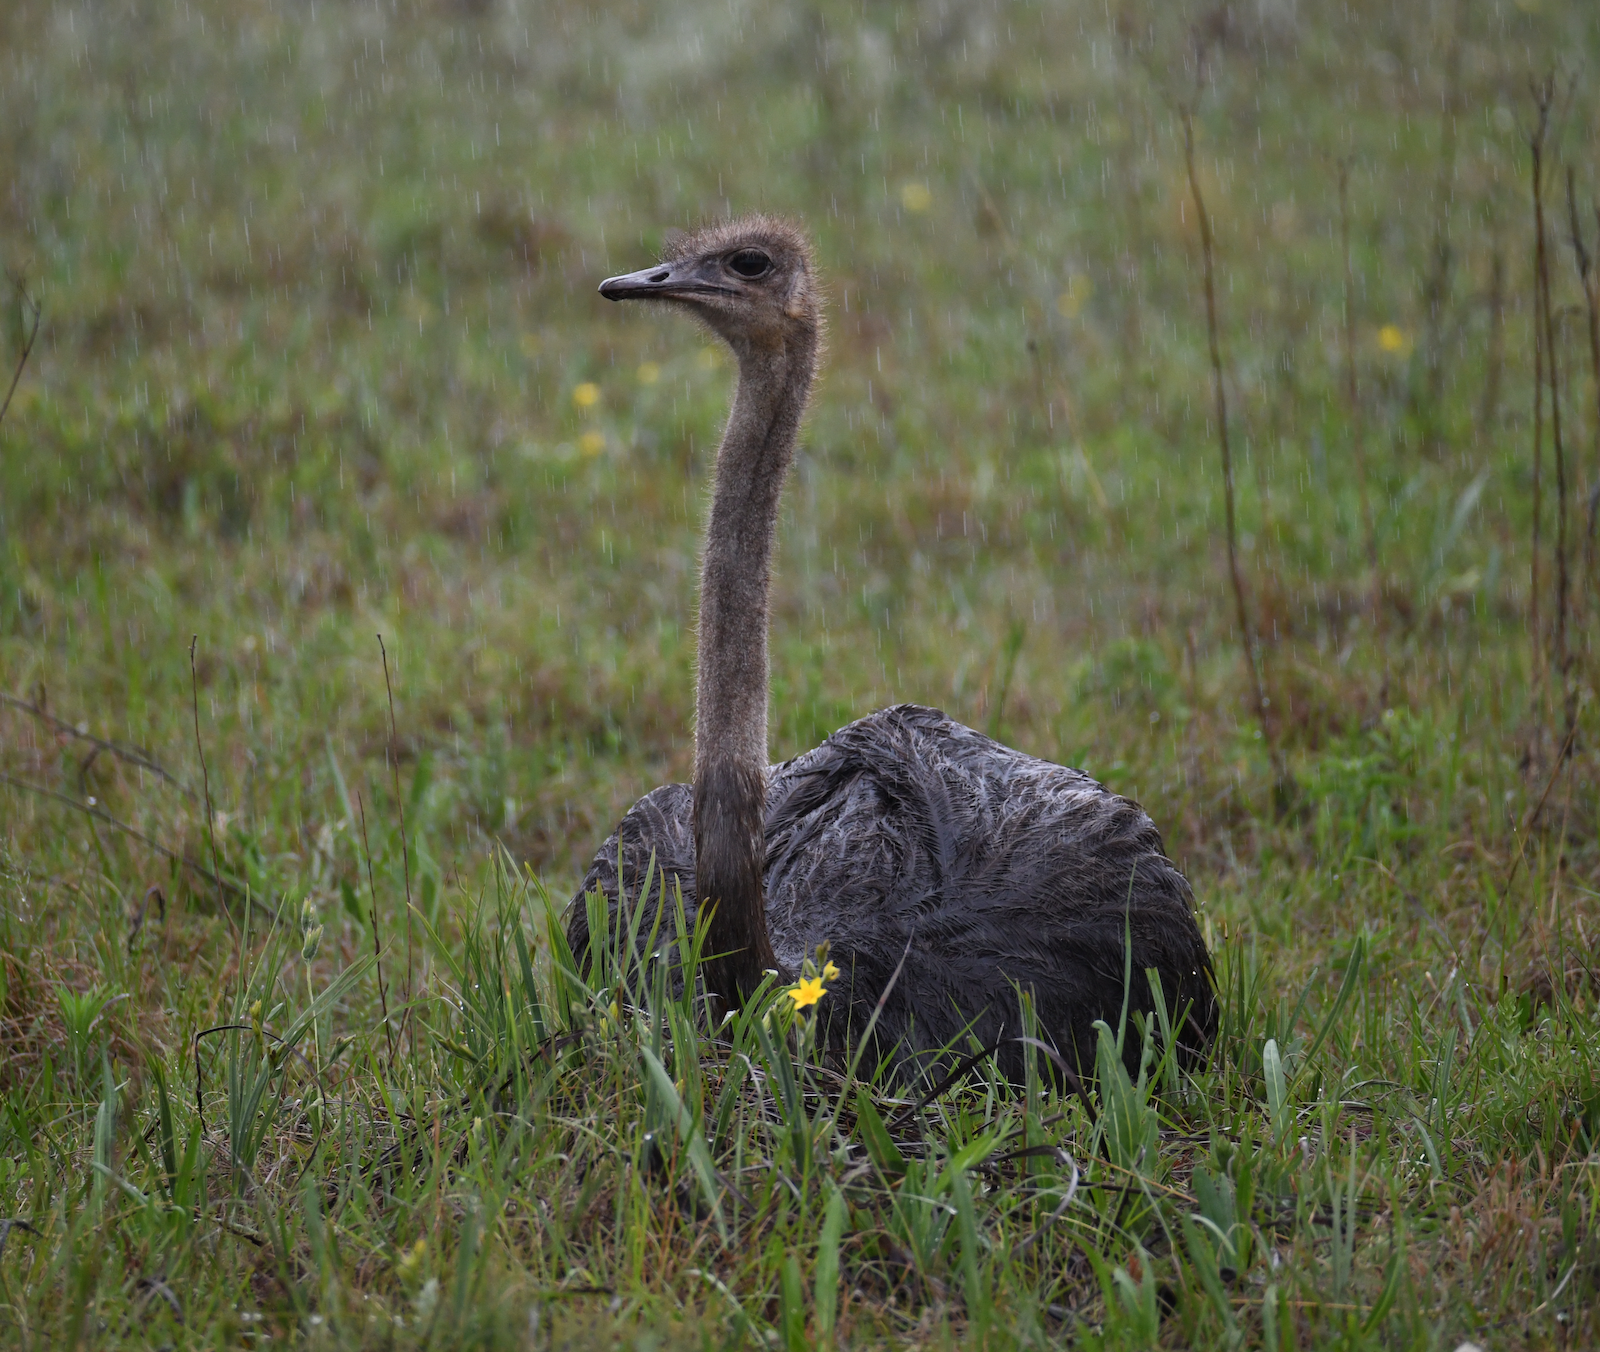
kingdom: Animalia
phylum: Chordata
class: Aves
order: Struthioniformes
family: Struthionidae
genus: Struthio
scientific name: Struthio camelus
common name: Common ostrich
